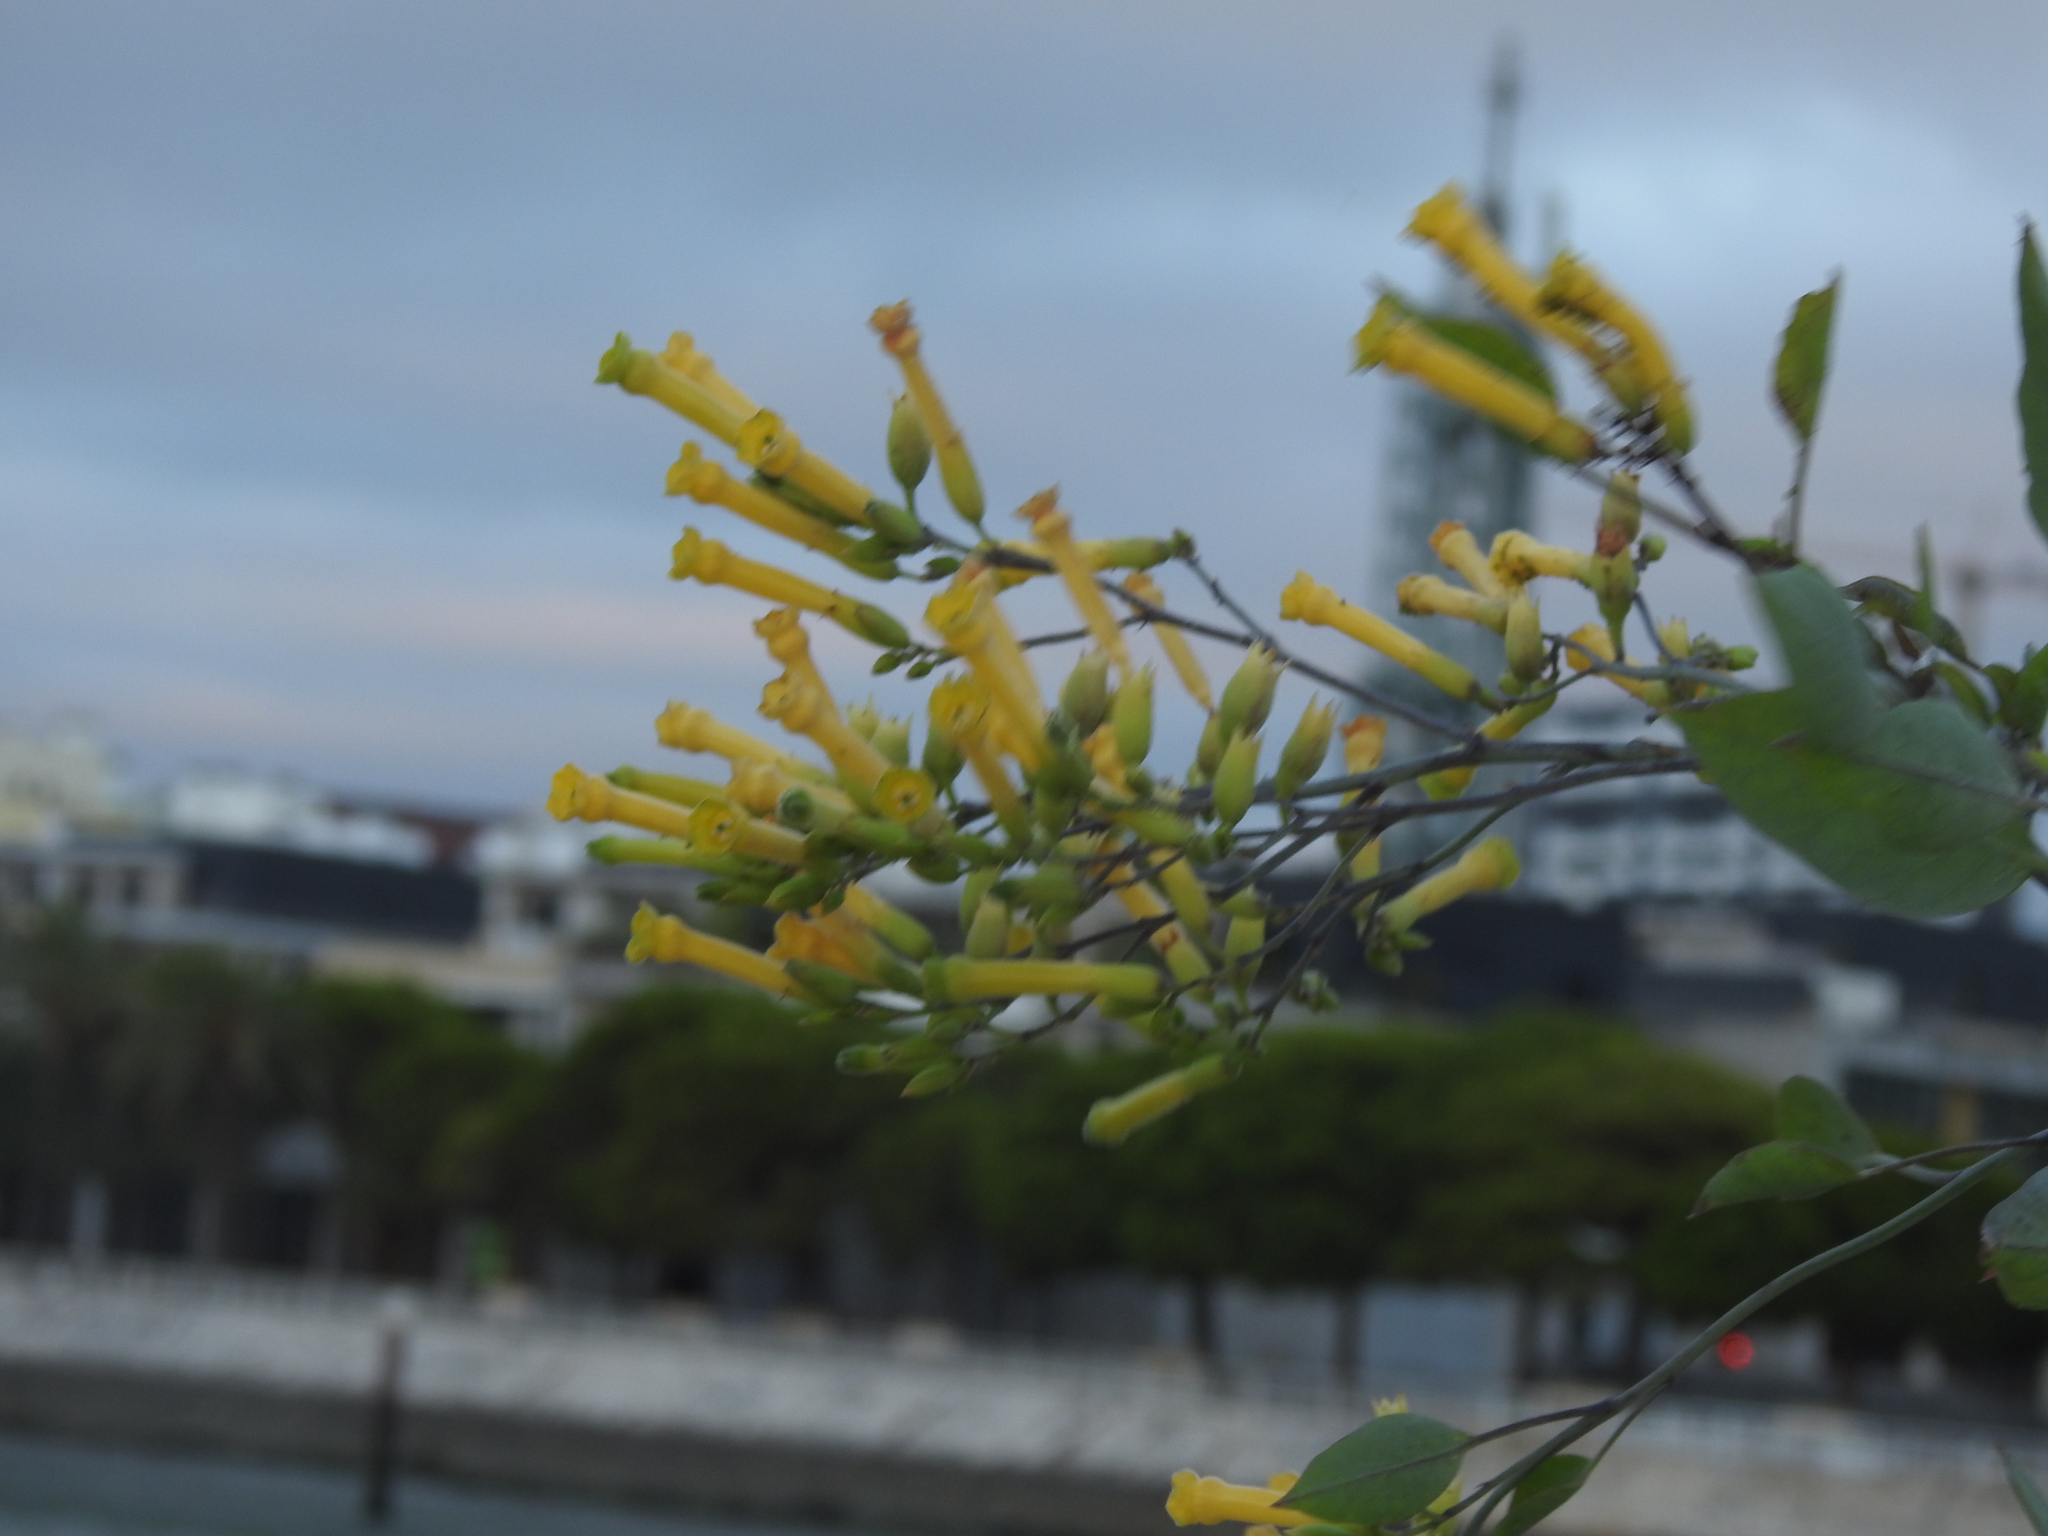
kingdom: Plantae
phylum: Tracheophyta
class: Magnoliopsida
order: Solanales
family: Solanaceae
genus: Nicotiana
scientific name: Nicotiana glauca
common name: Tree tobacco
